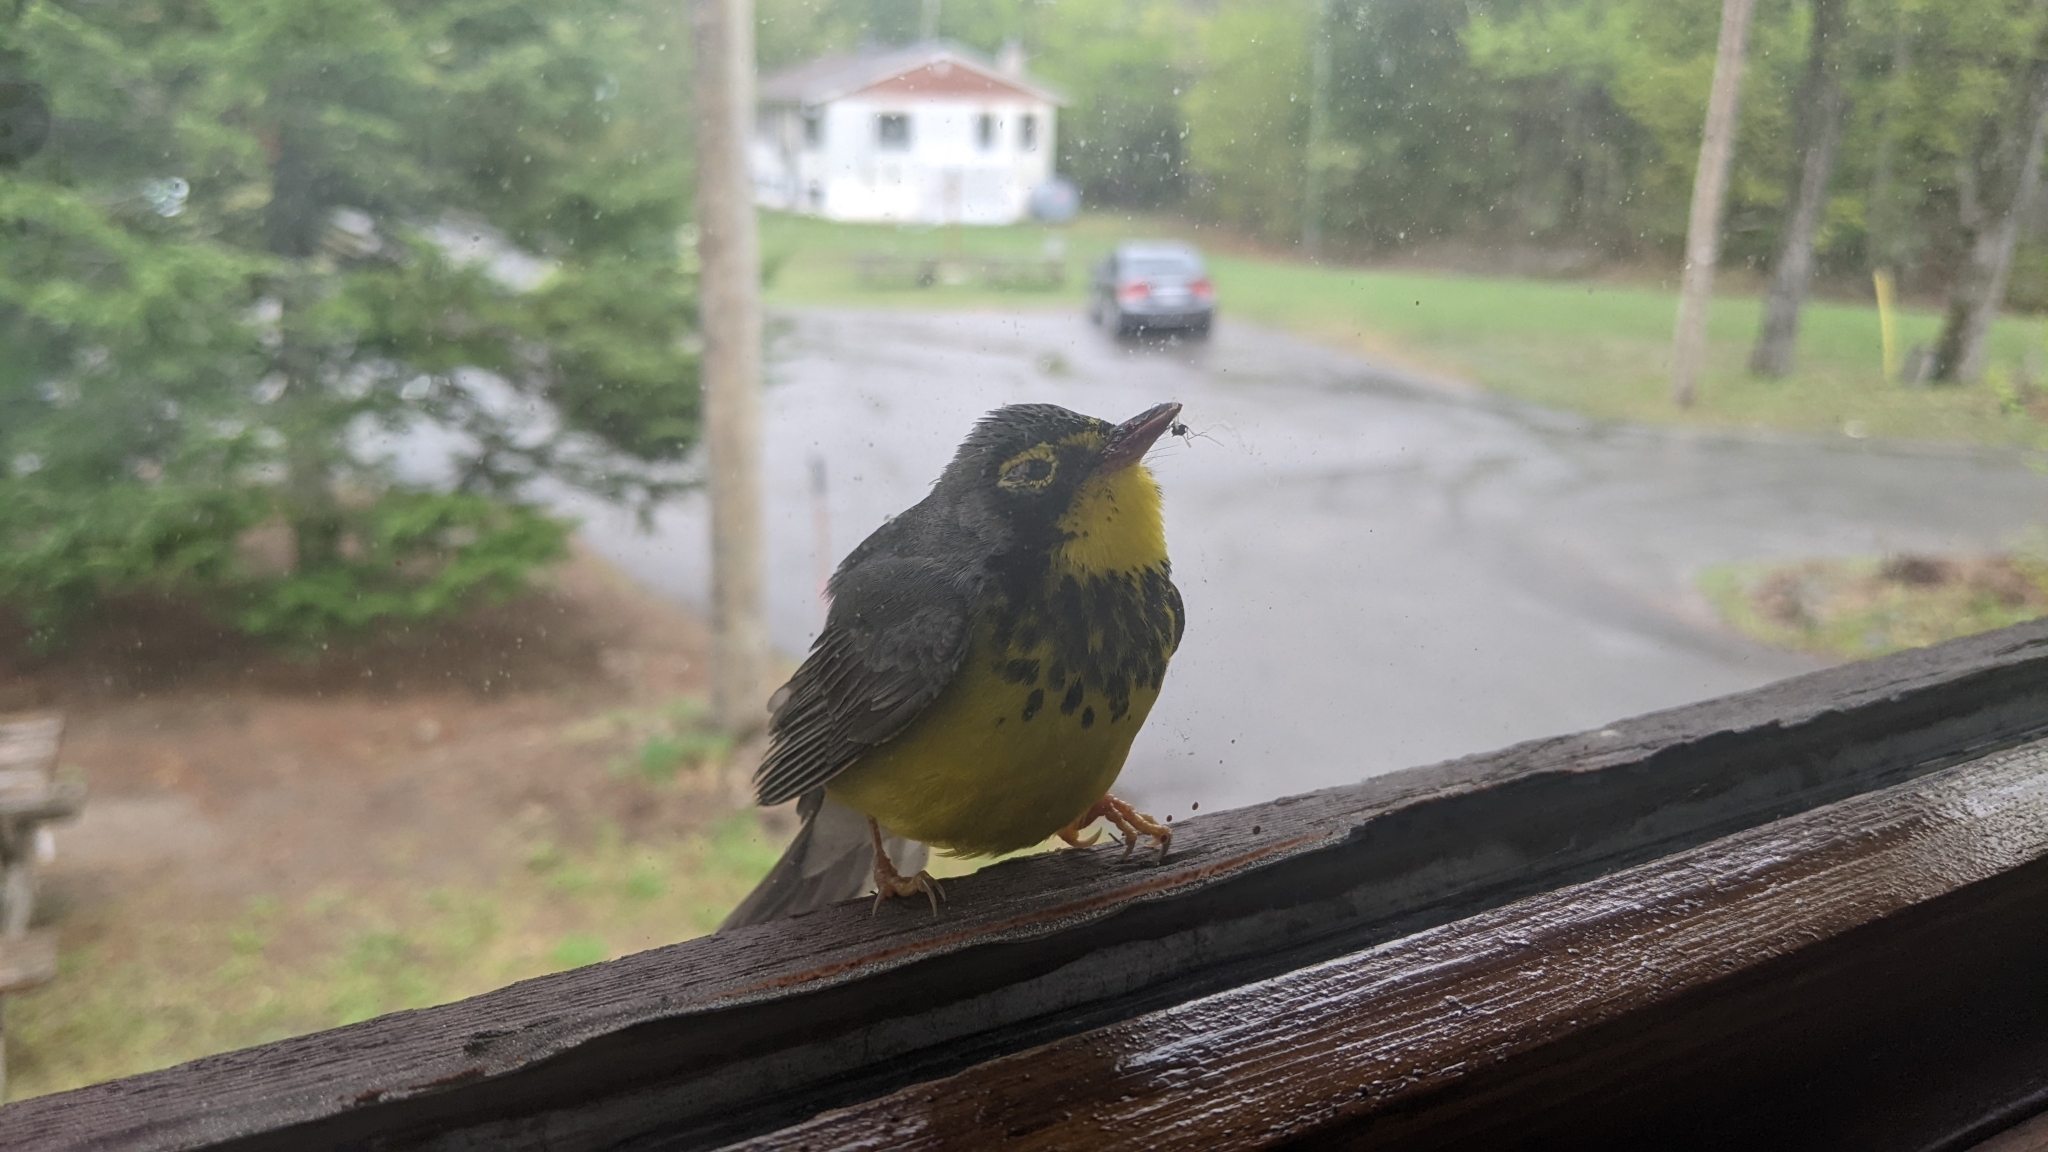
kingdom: Animalia
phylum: Chordata
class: Aves
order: Passeriformes
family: Parulidae
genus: Cardellina
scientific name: Cardellina canadensis
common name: Canada warbler
